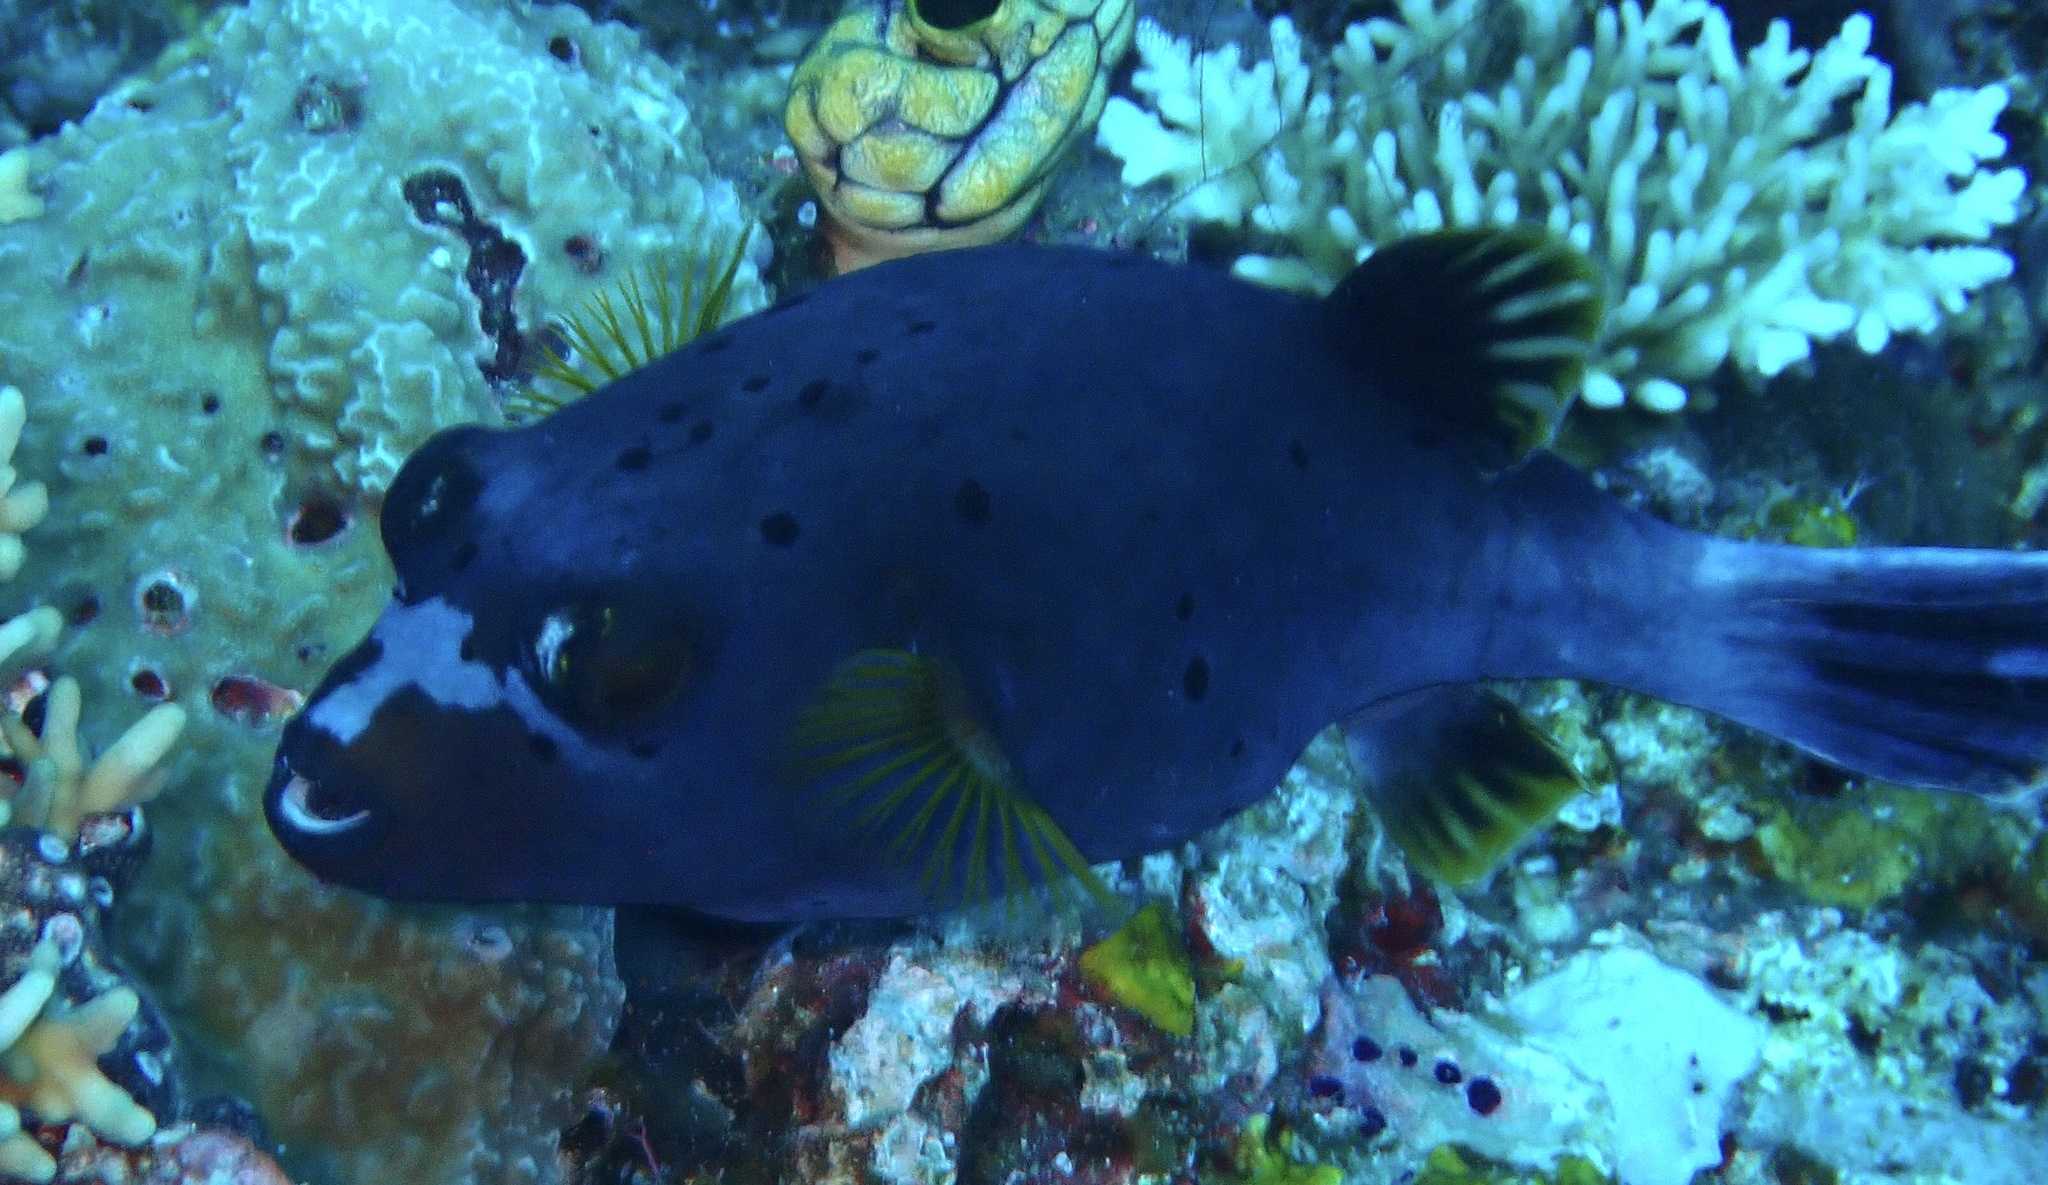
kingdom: Animalia
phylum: Chordata
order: Tetraodontiformes
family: Tetraodontidae
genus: Arothron
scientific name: Arothron nigropunctatus
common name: Black spotted blow fish
